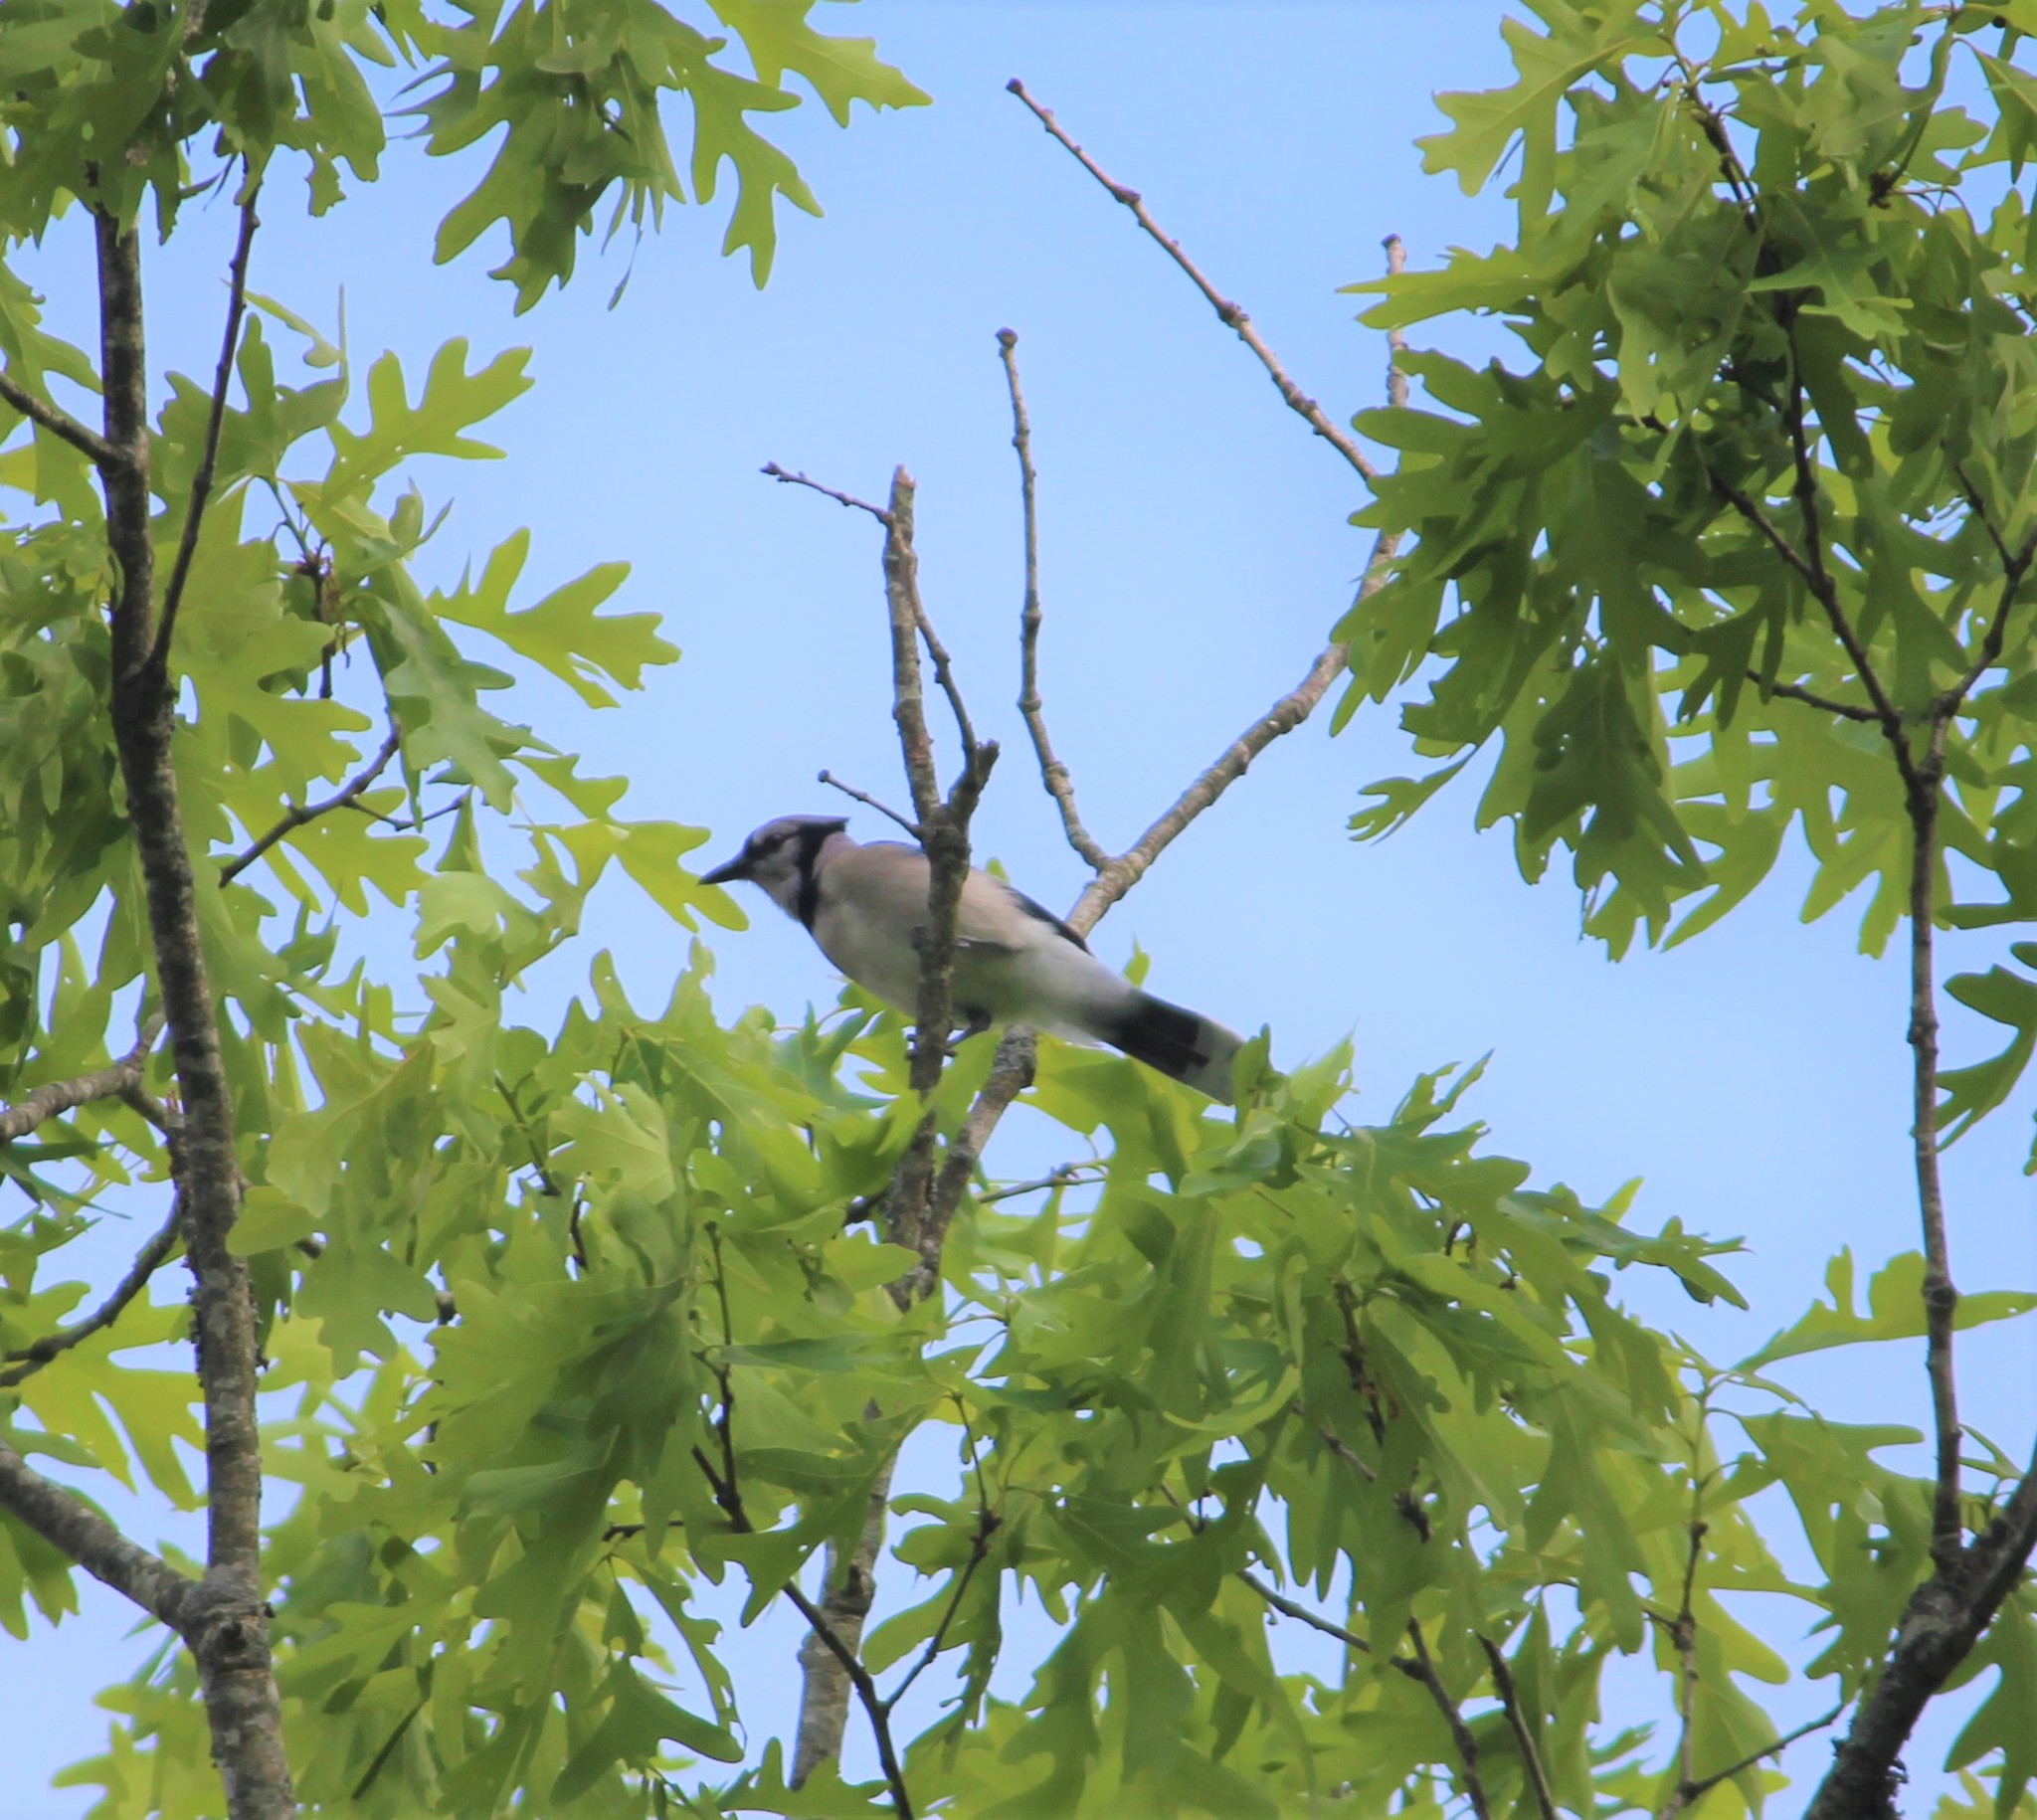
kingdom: Animalia
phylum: Chordata
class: Aves
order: Passeriformes
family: Corvidae
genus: Cyanocitta
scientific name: Cyanocitta cristata
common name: Blue jay
